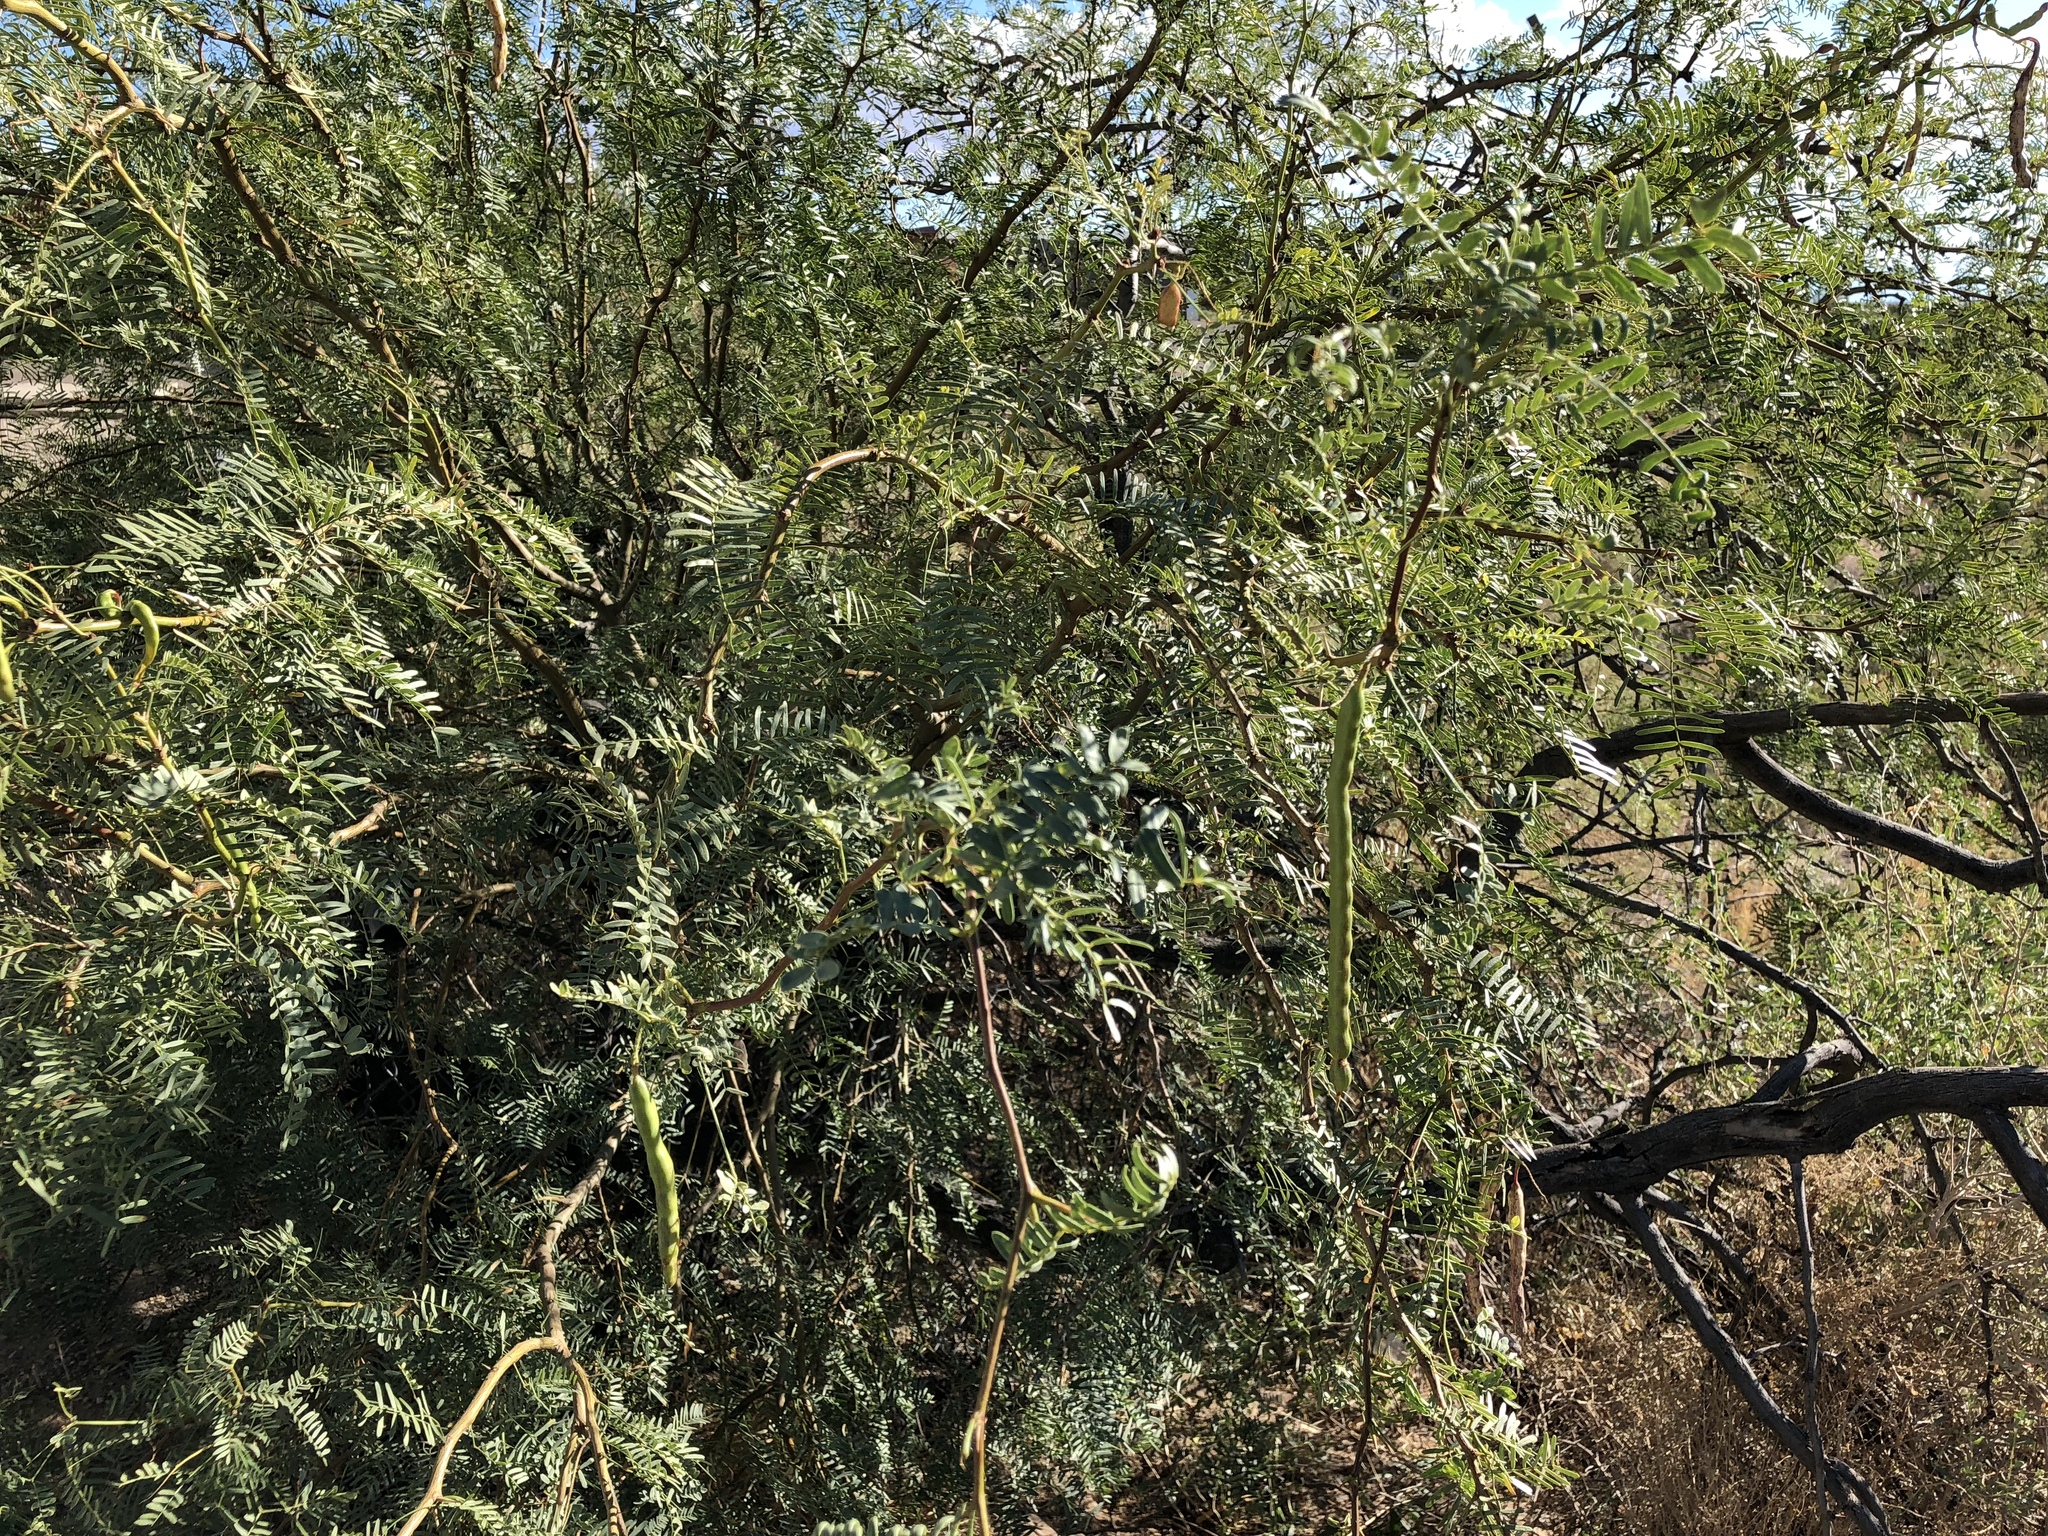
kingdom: Plantae
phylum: Tracheophyta
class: Magnoliopsida
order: Fabales
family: Fabaceae
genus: Prosopis
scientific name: Prosopis glandulosa
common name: Honey mesquite
